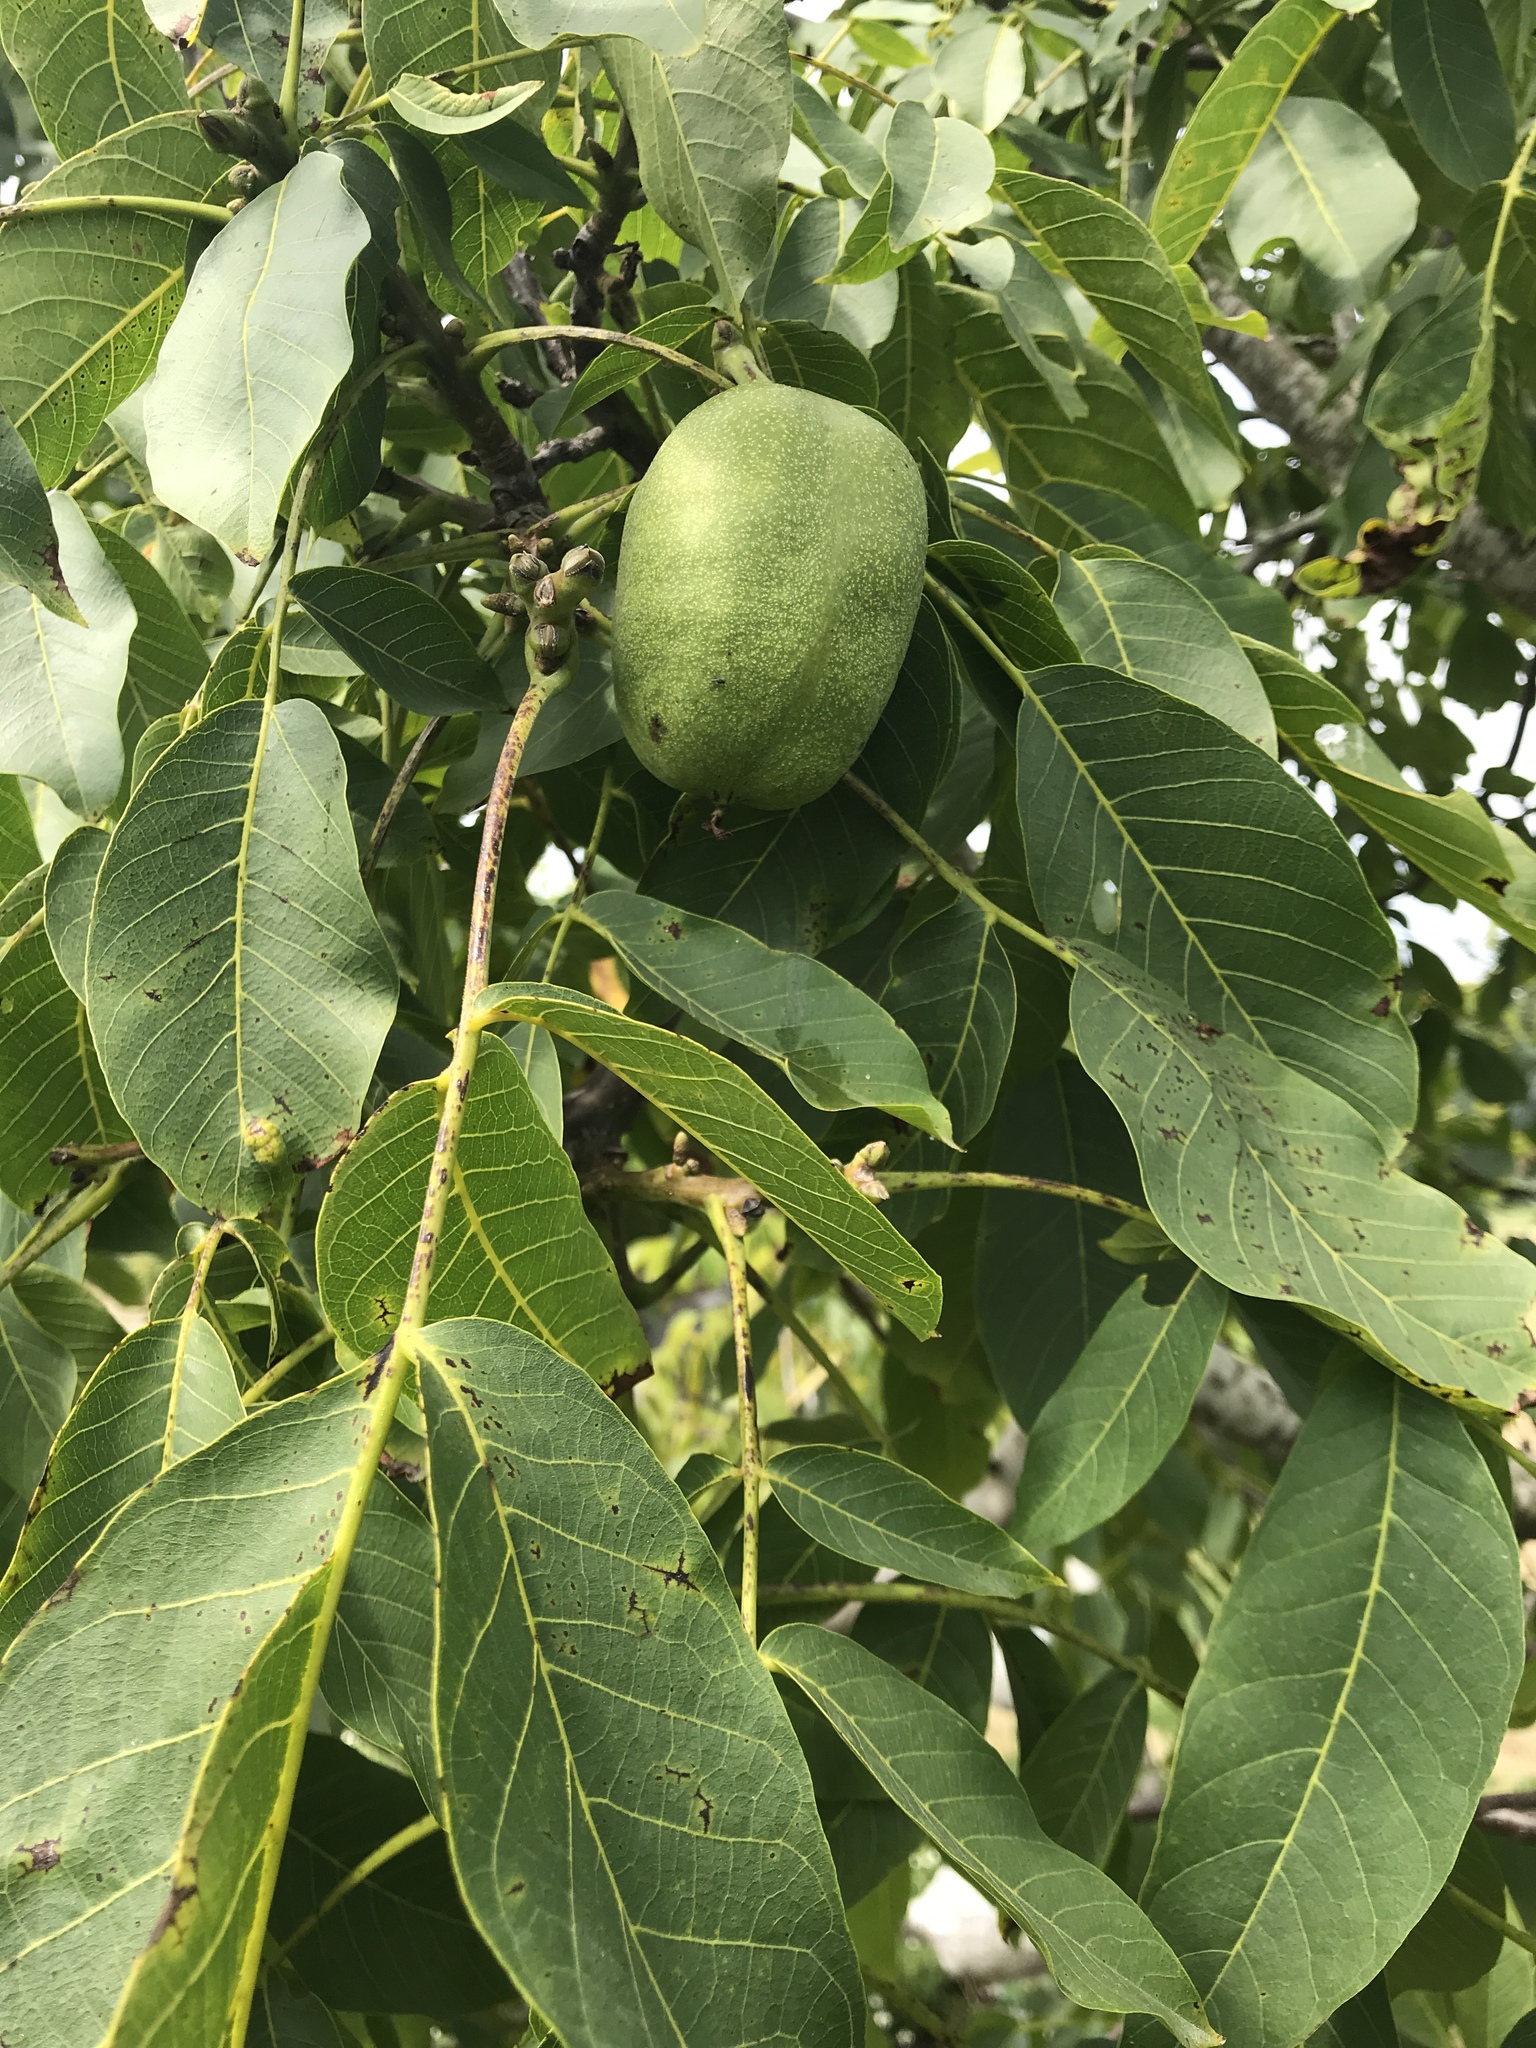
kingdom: Plantae
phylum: Tracheophyta
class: Magnoliopsida
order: Fagales
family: Juglandaceae
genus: Juglans
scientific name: Juglans regia
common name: Walnut
